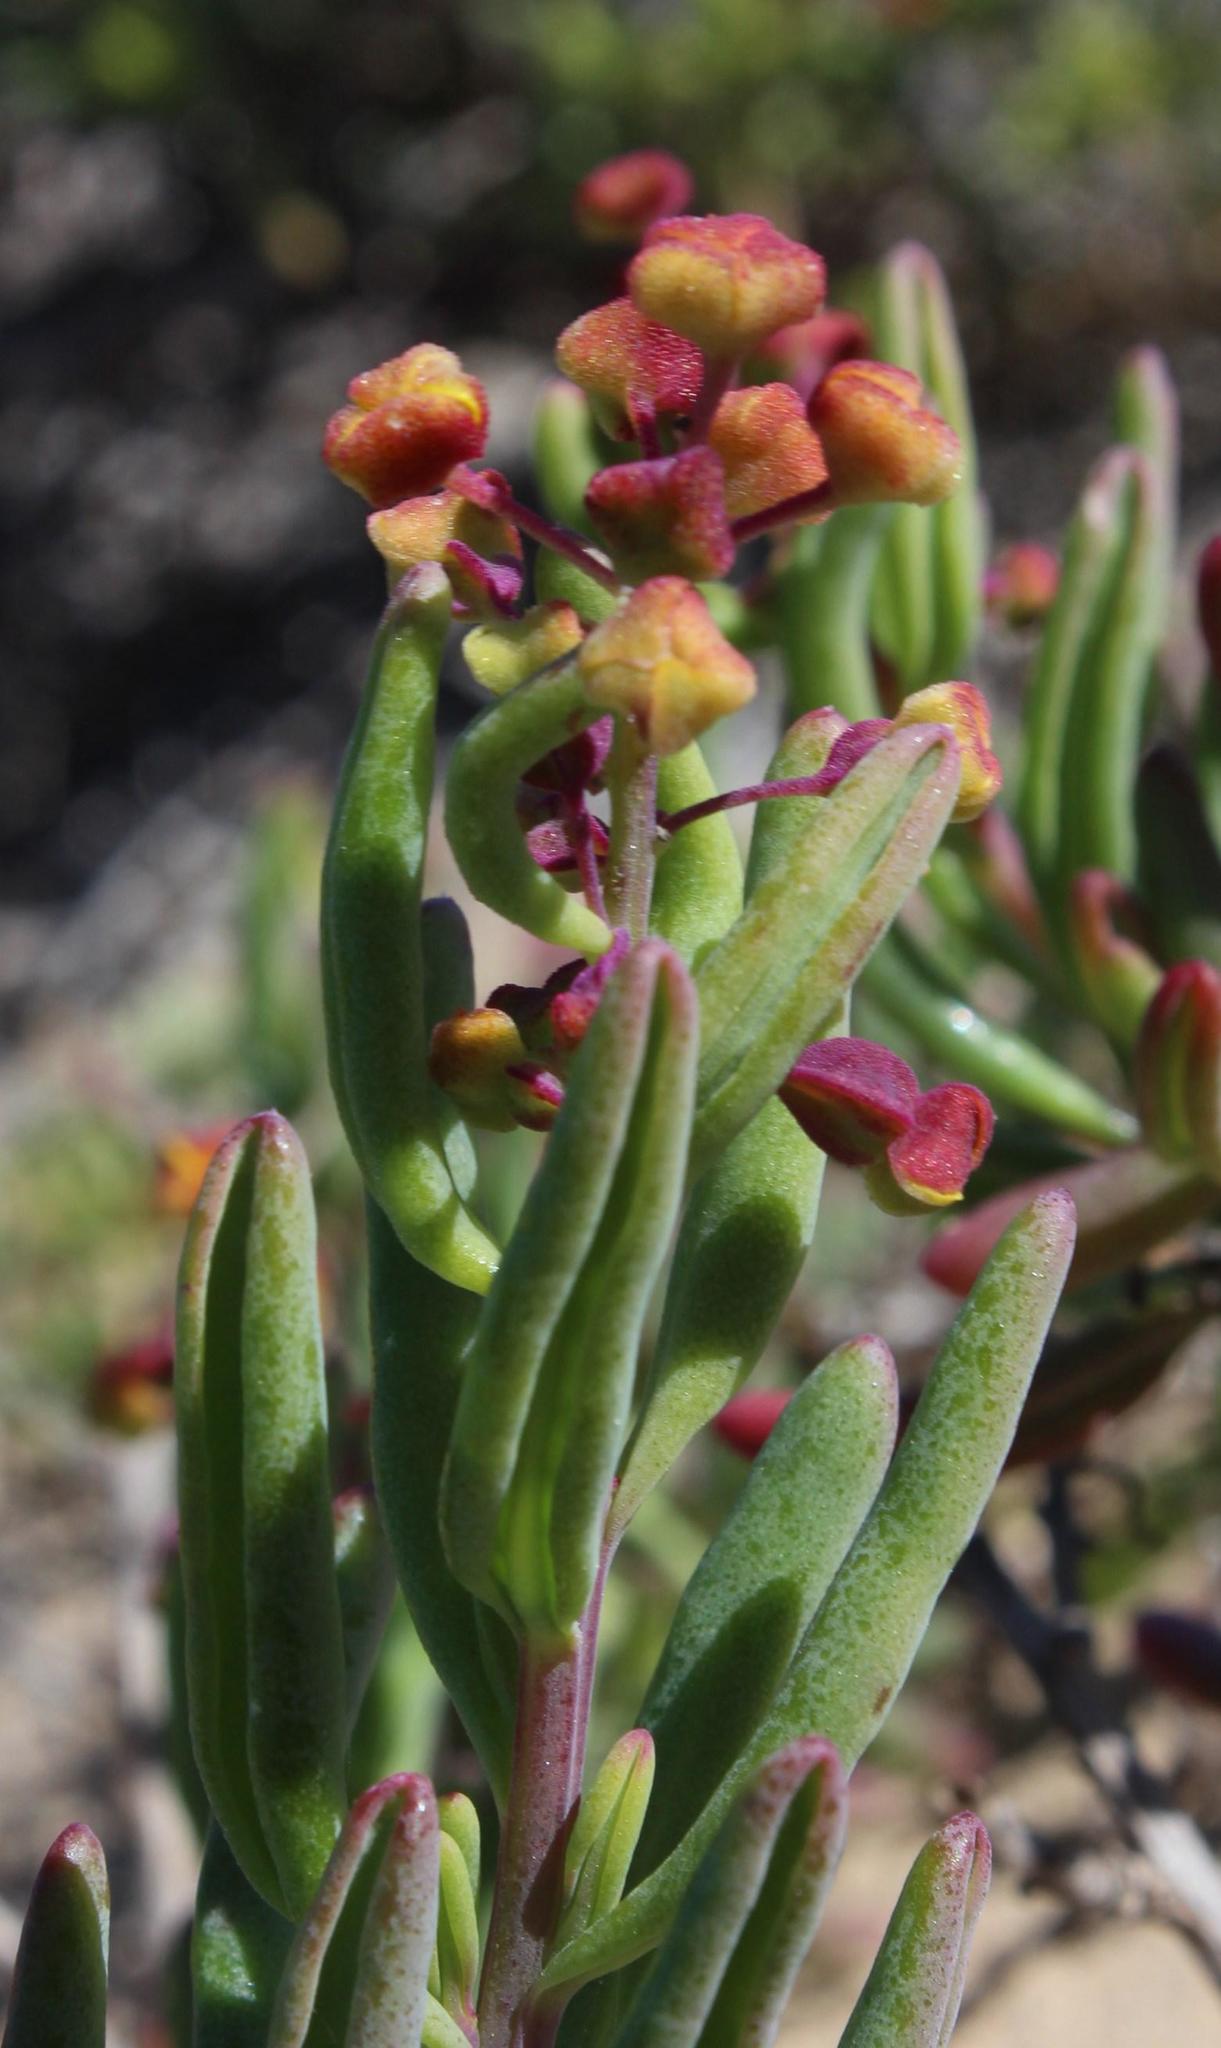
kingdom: Plantae
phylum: Tracheophyta
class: Magnoliopsida
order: Caryophyllales
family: Aizoaceae
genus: Tetragonia
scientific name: Tetragonia fruticosa
